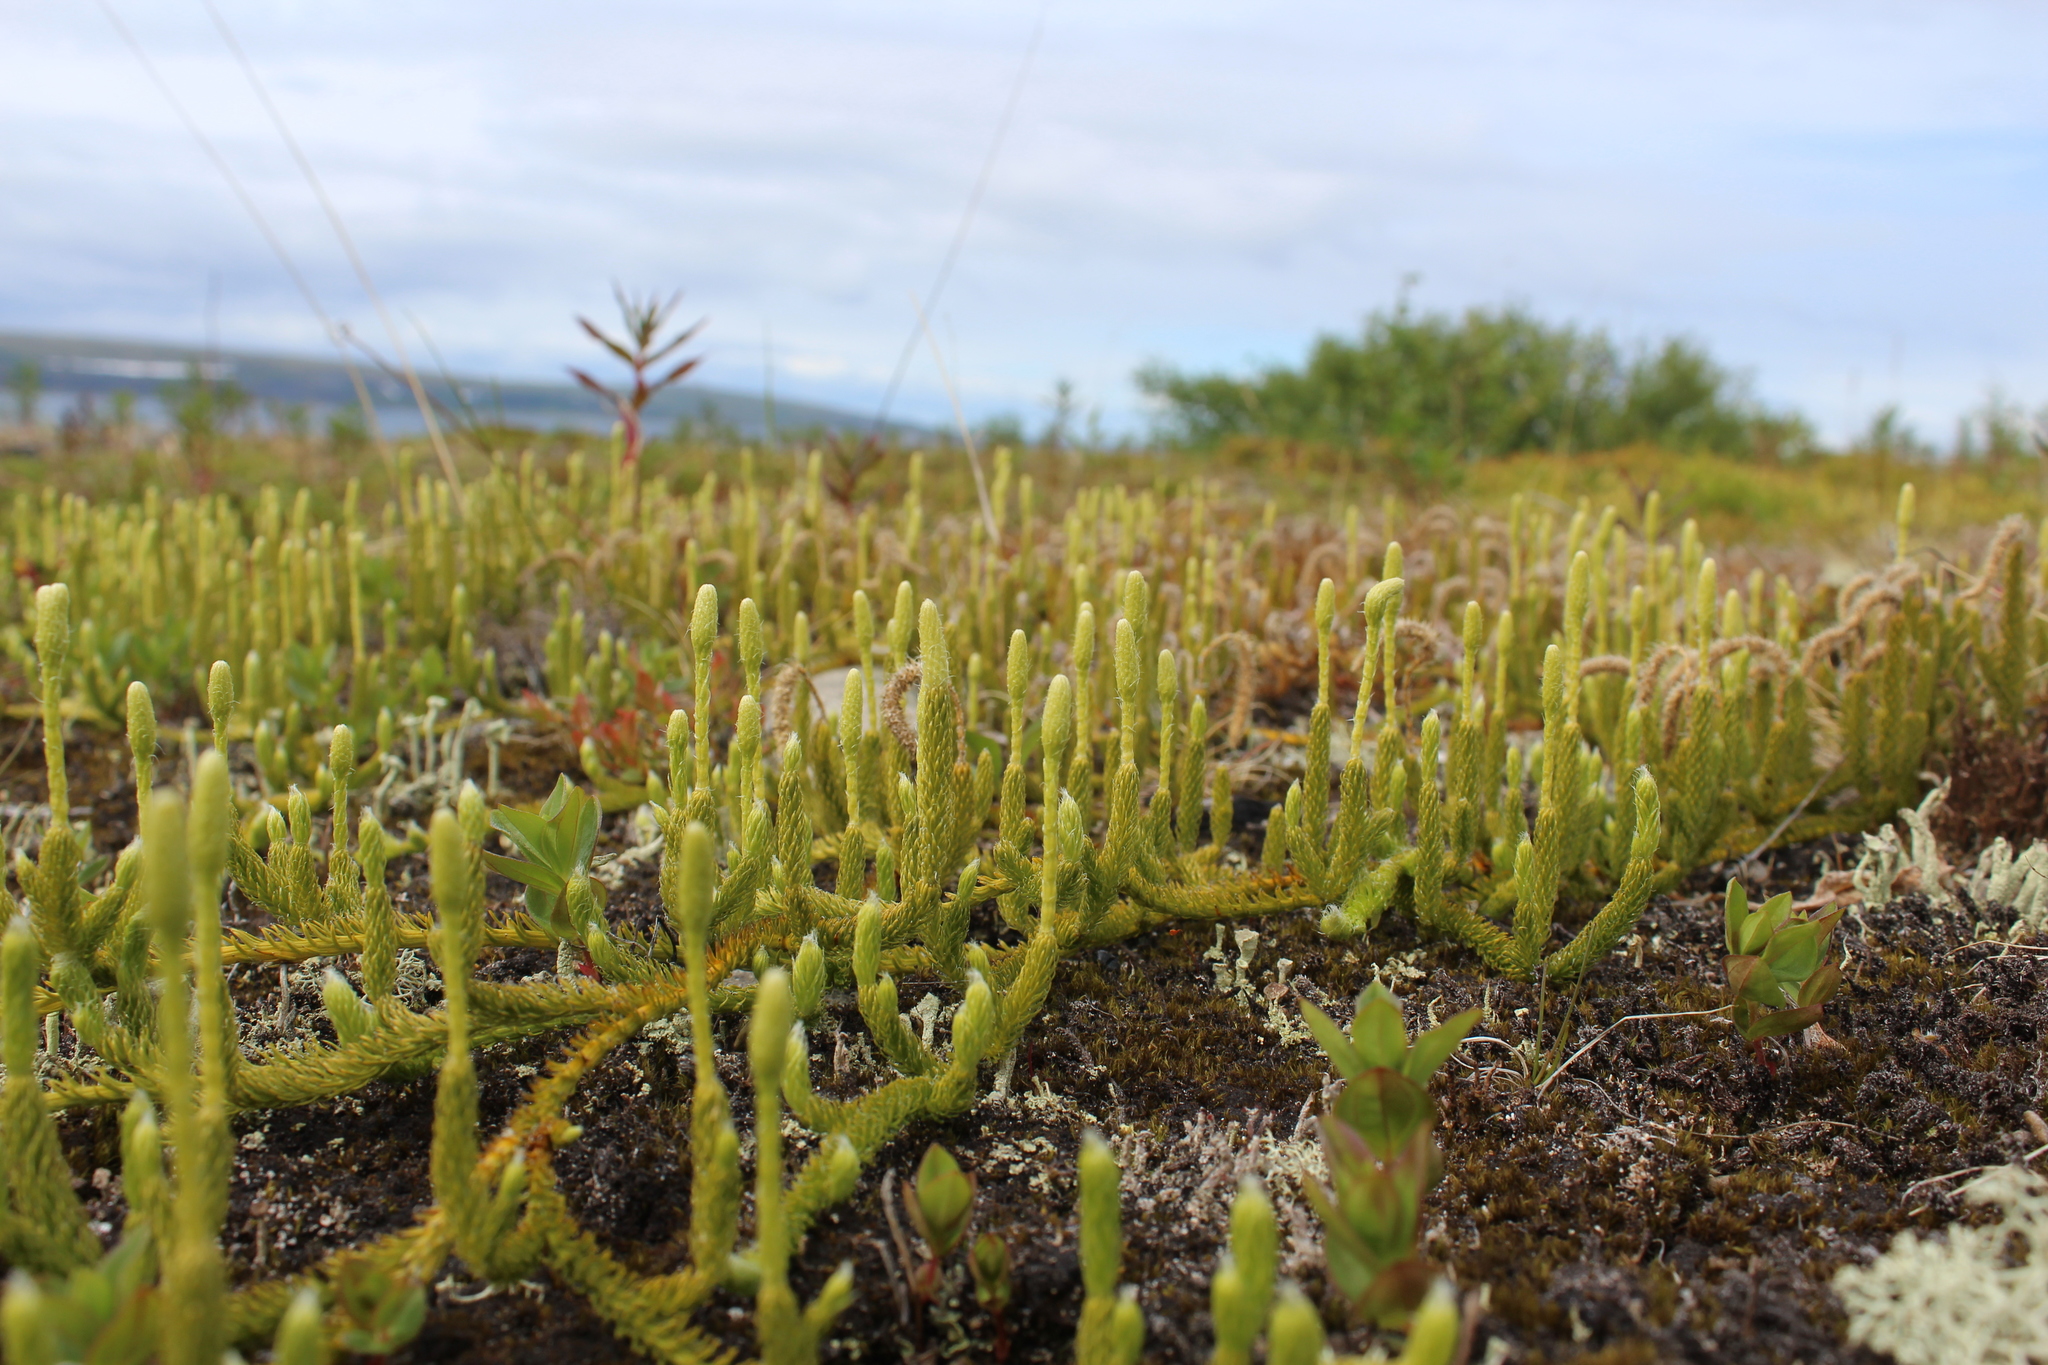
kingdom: Plantae
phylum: Tracheophyta
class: Lycopodiopsida
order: Lycopodiales
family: Lycopodiaceae
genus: Lycopodium
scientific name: Lycopodium lagopus
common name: One-cone clubmoss
